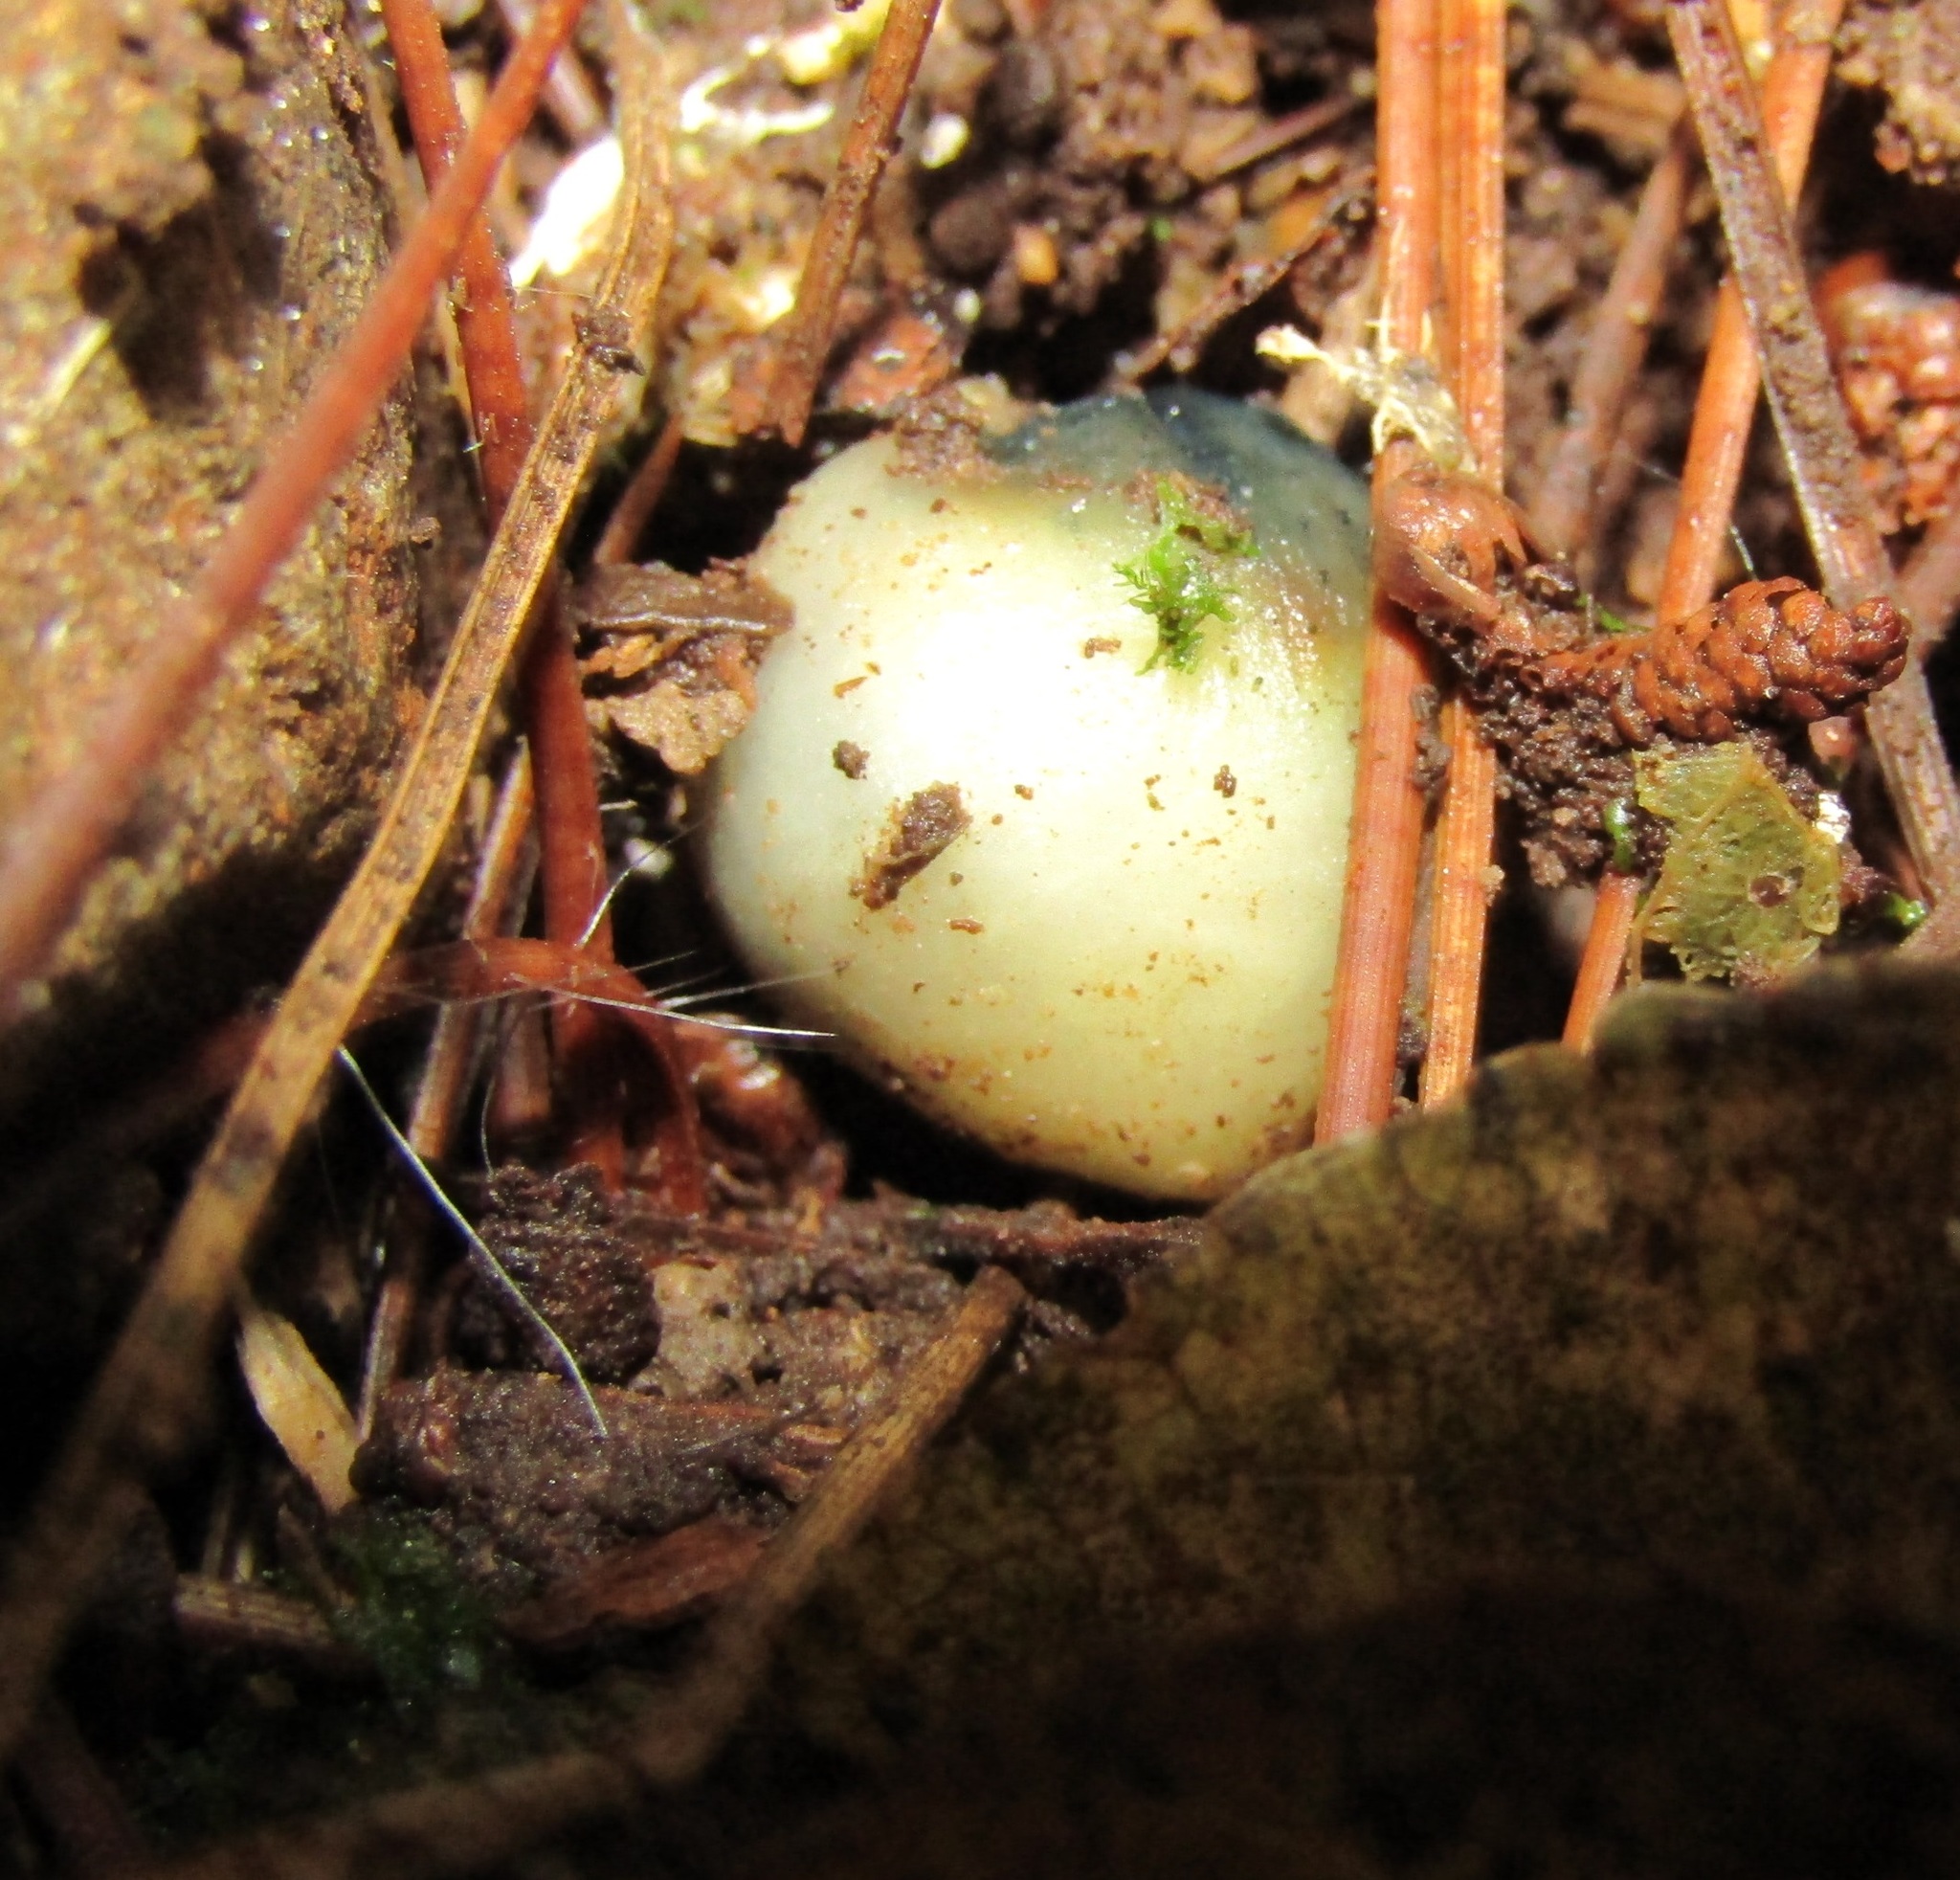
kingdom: Fungi
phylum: Basidiomycota
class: Agaricomycetes
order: Agaricales
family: Hymenogastraceae
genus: Psilocybe
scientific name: Psilocybe weraroa
